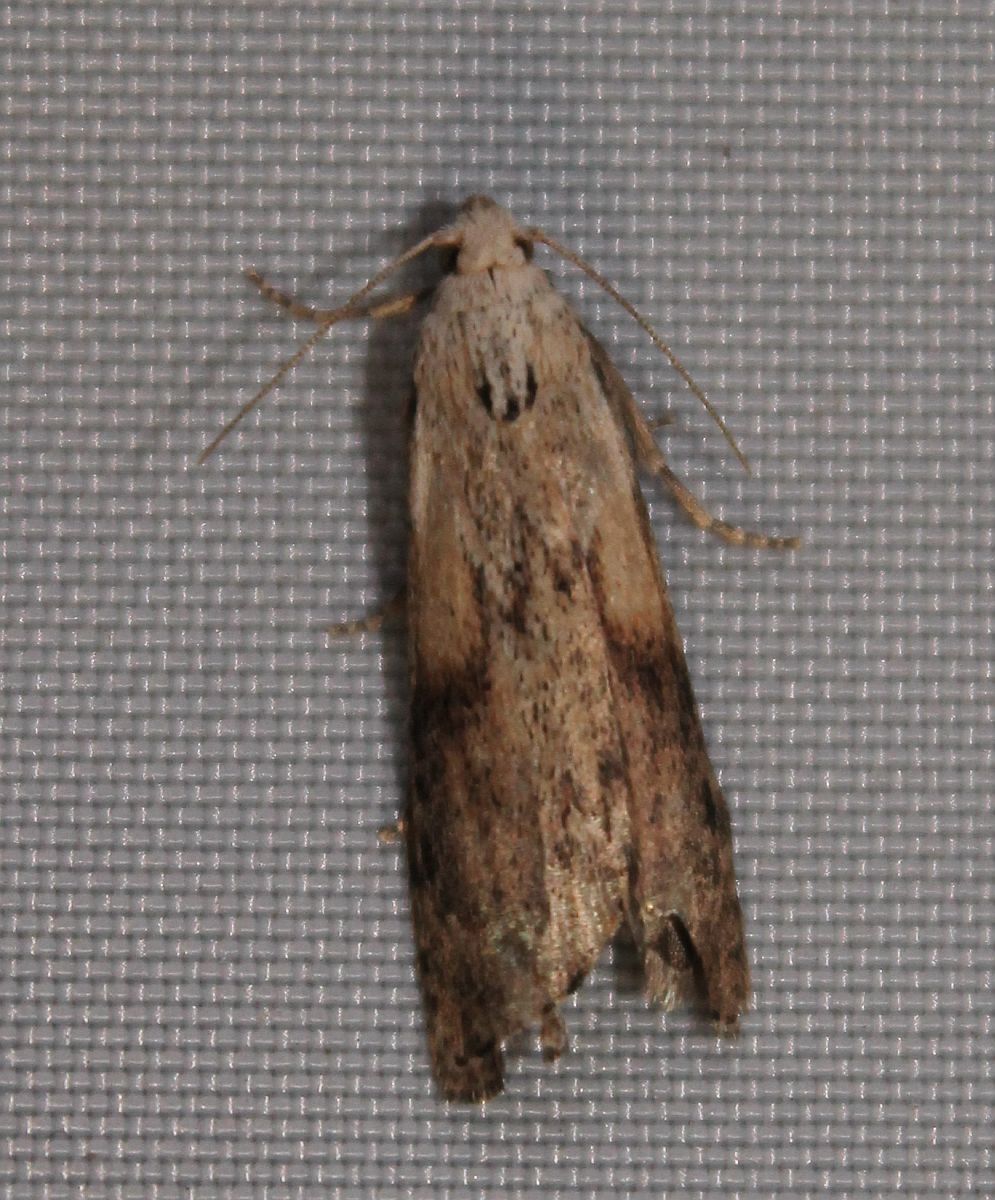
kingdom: Animalia
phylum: Arthropoda
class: Insecta
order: Lepidoptera
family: Pyralidae
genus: Aphomia
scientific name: Aphomia sociella
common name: Bee moth
